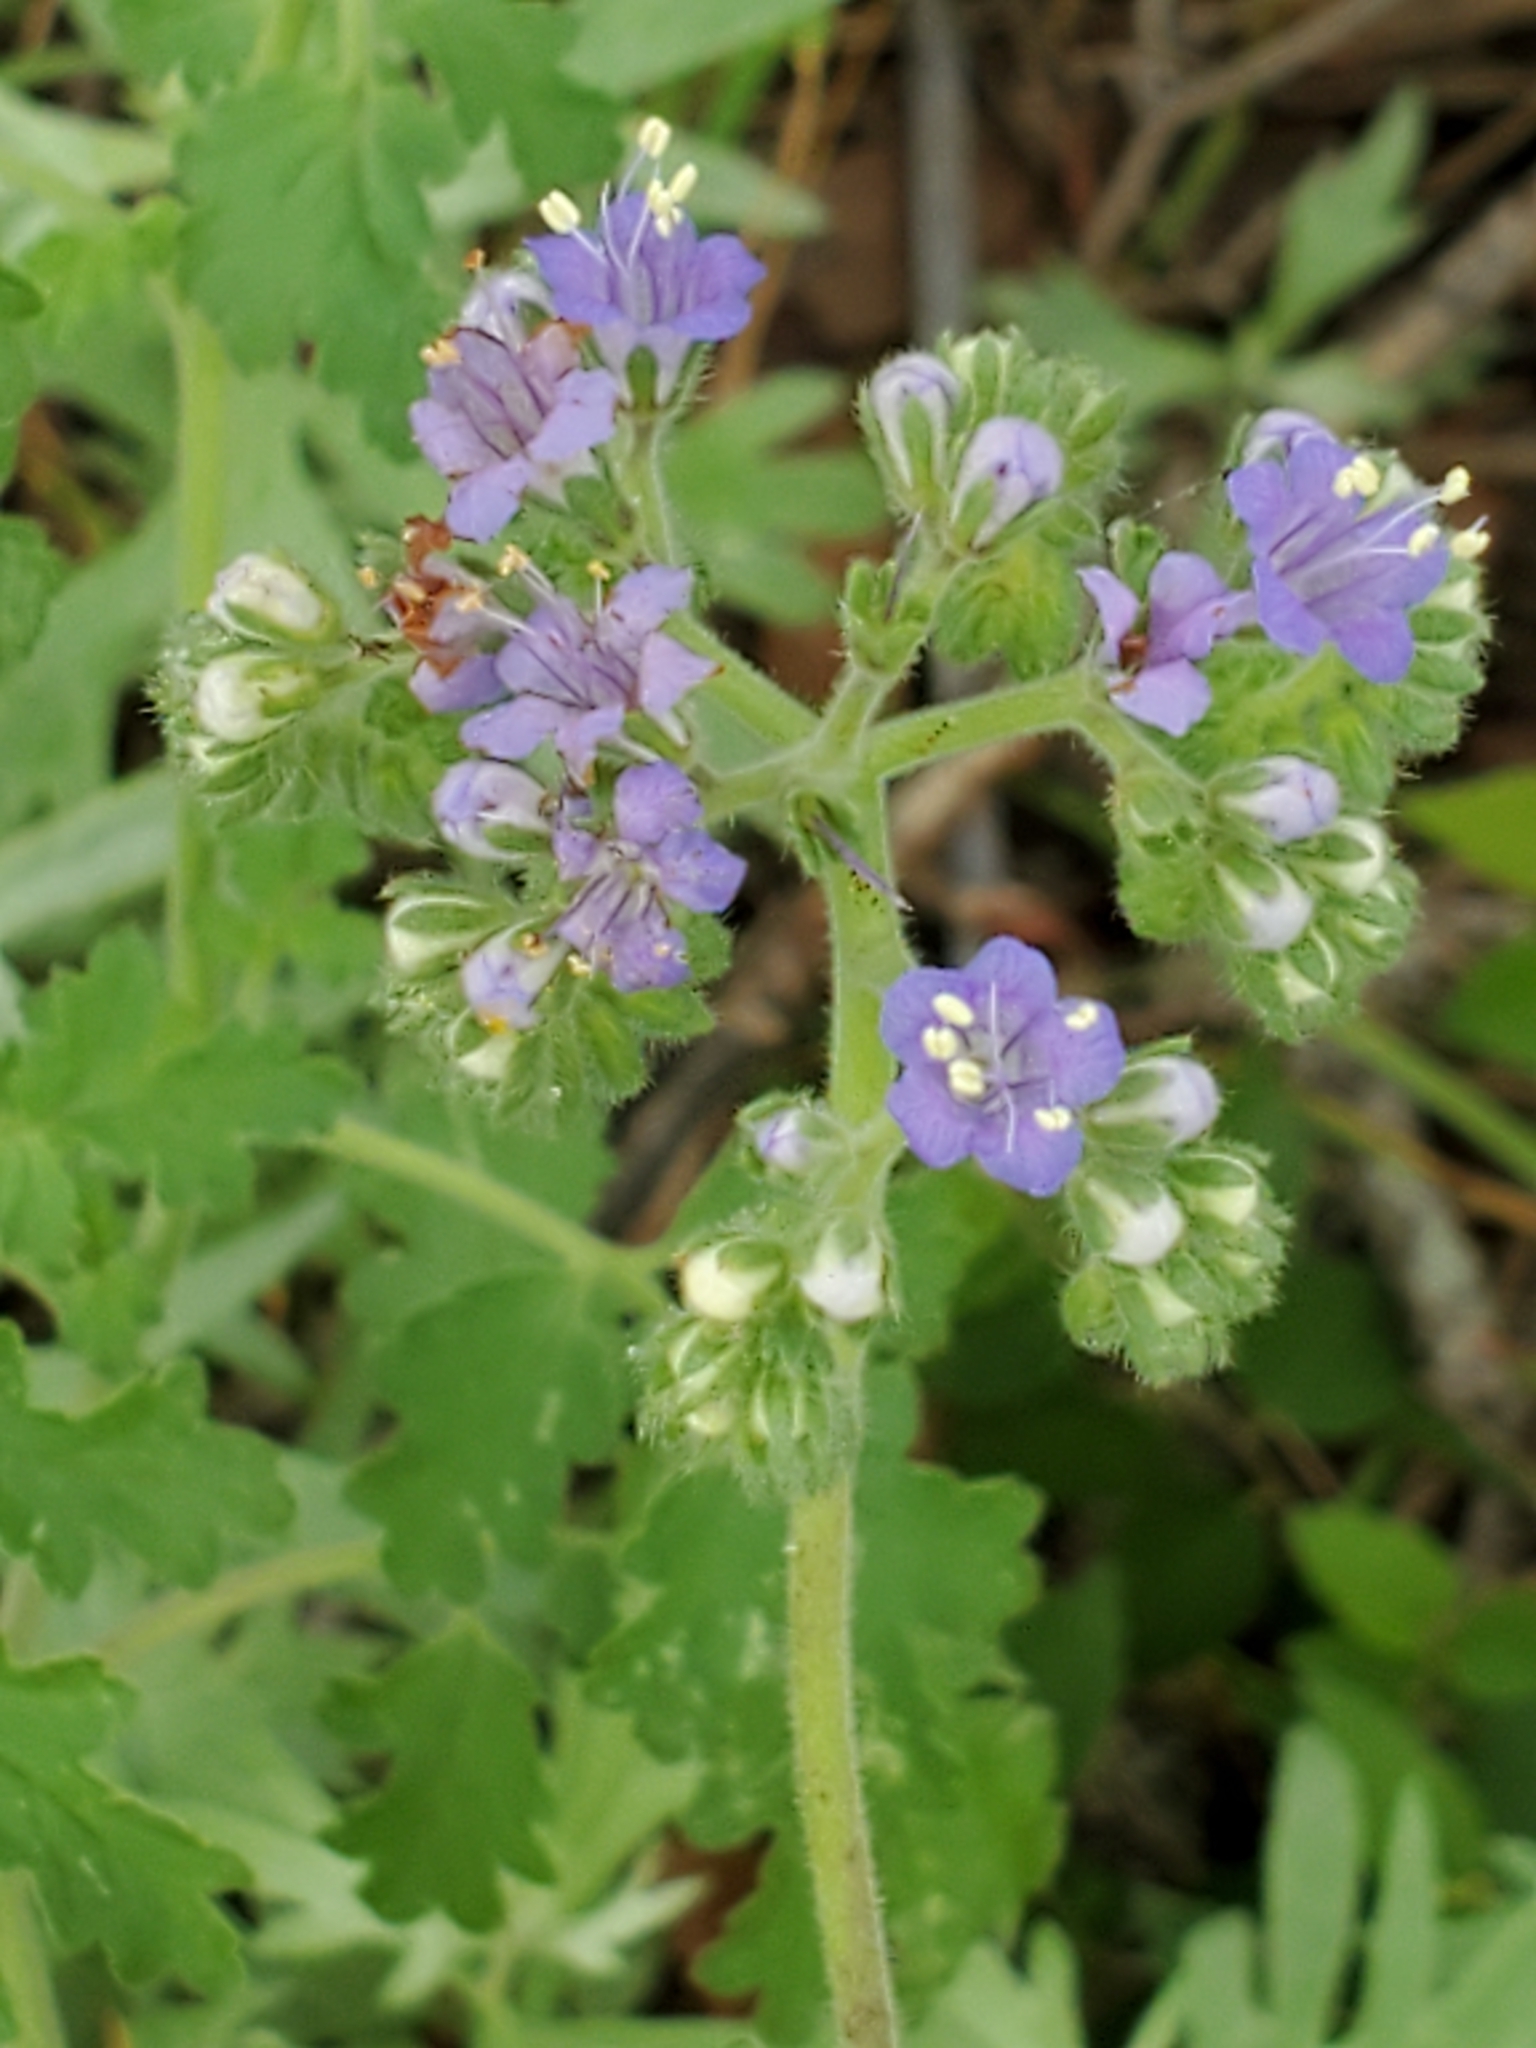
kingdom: Plantae
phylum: Tracheophyta
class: Magnoliopsida
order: Boraginales
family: Hydrophyllaceae
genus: Phacelia
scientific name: Phacelia congesta
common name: Blue curls
